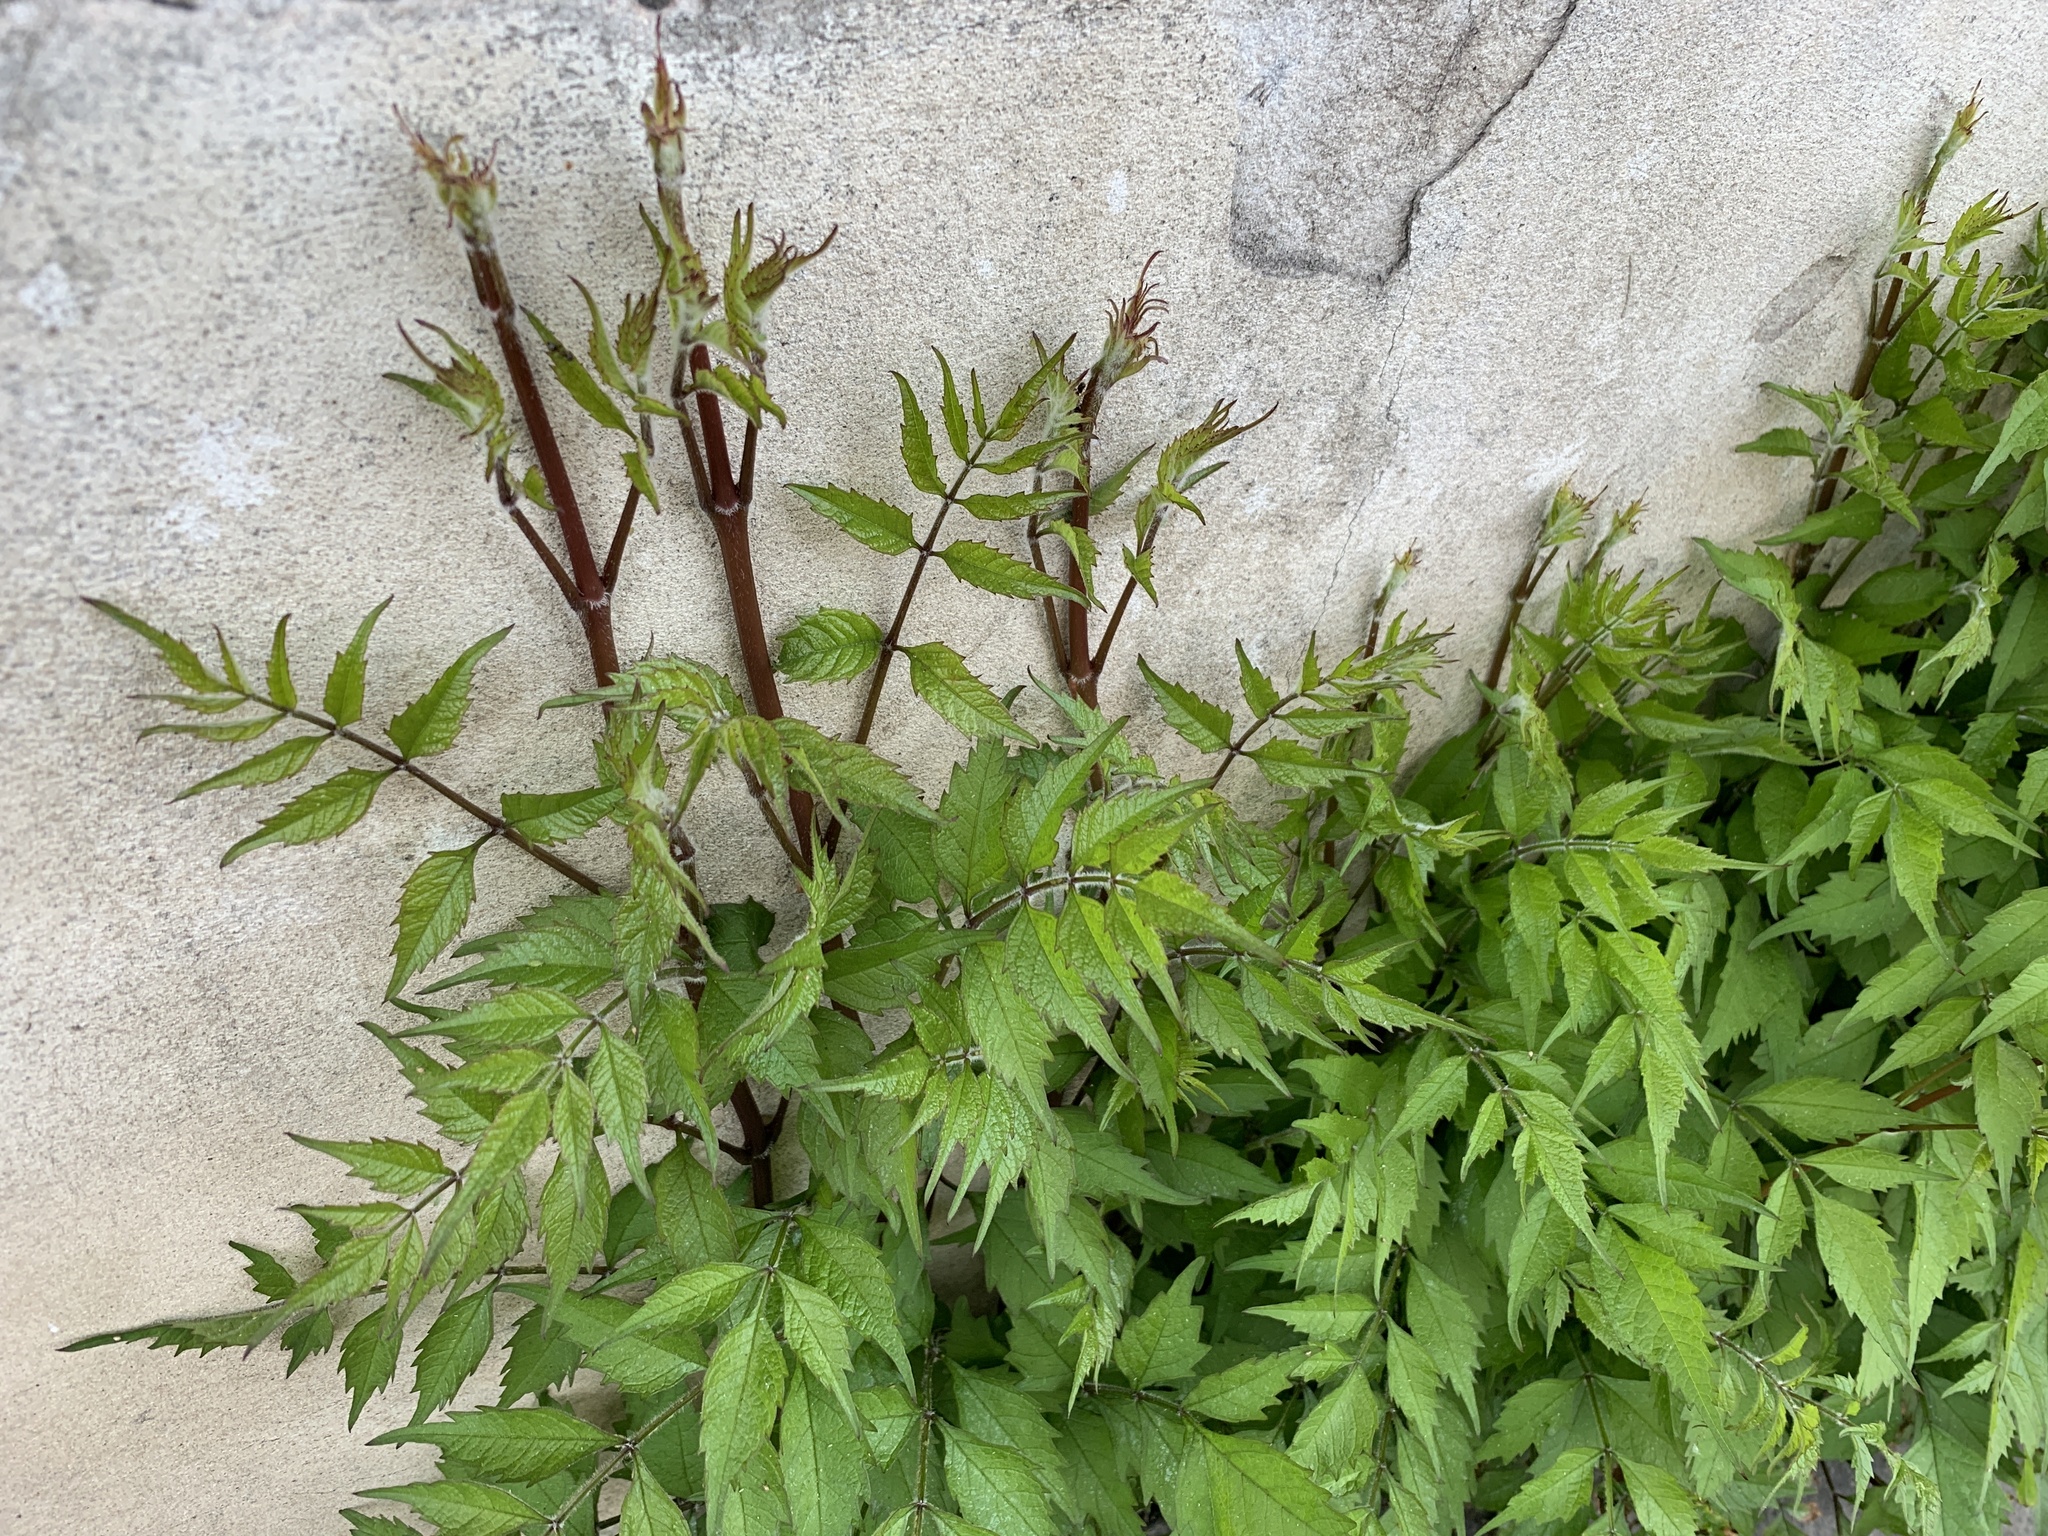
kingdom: Plantae
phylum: Tracheophyta
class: Magnoliopsida
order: Lamiales
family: Bignoniaceae
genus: Campsis
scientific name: Campsis radicans
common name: Trumpet-creeper
